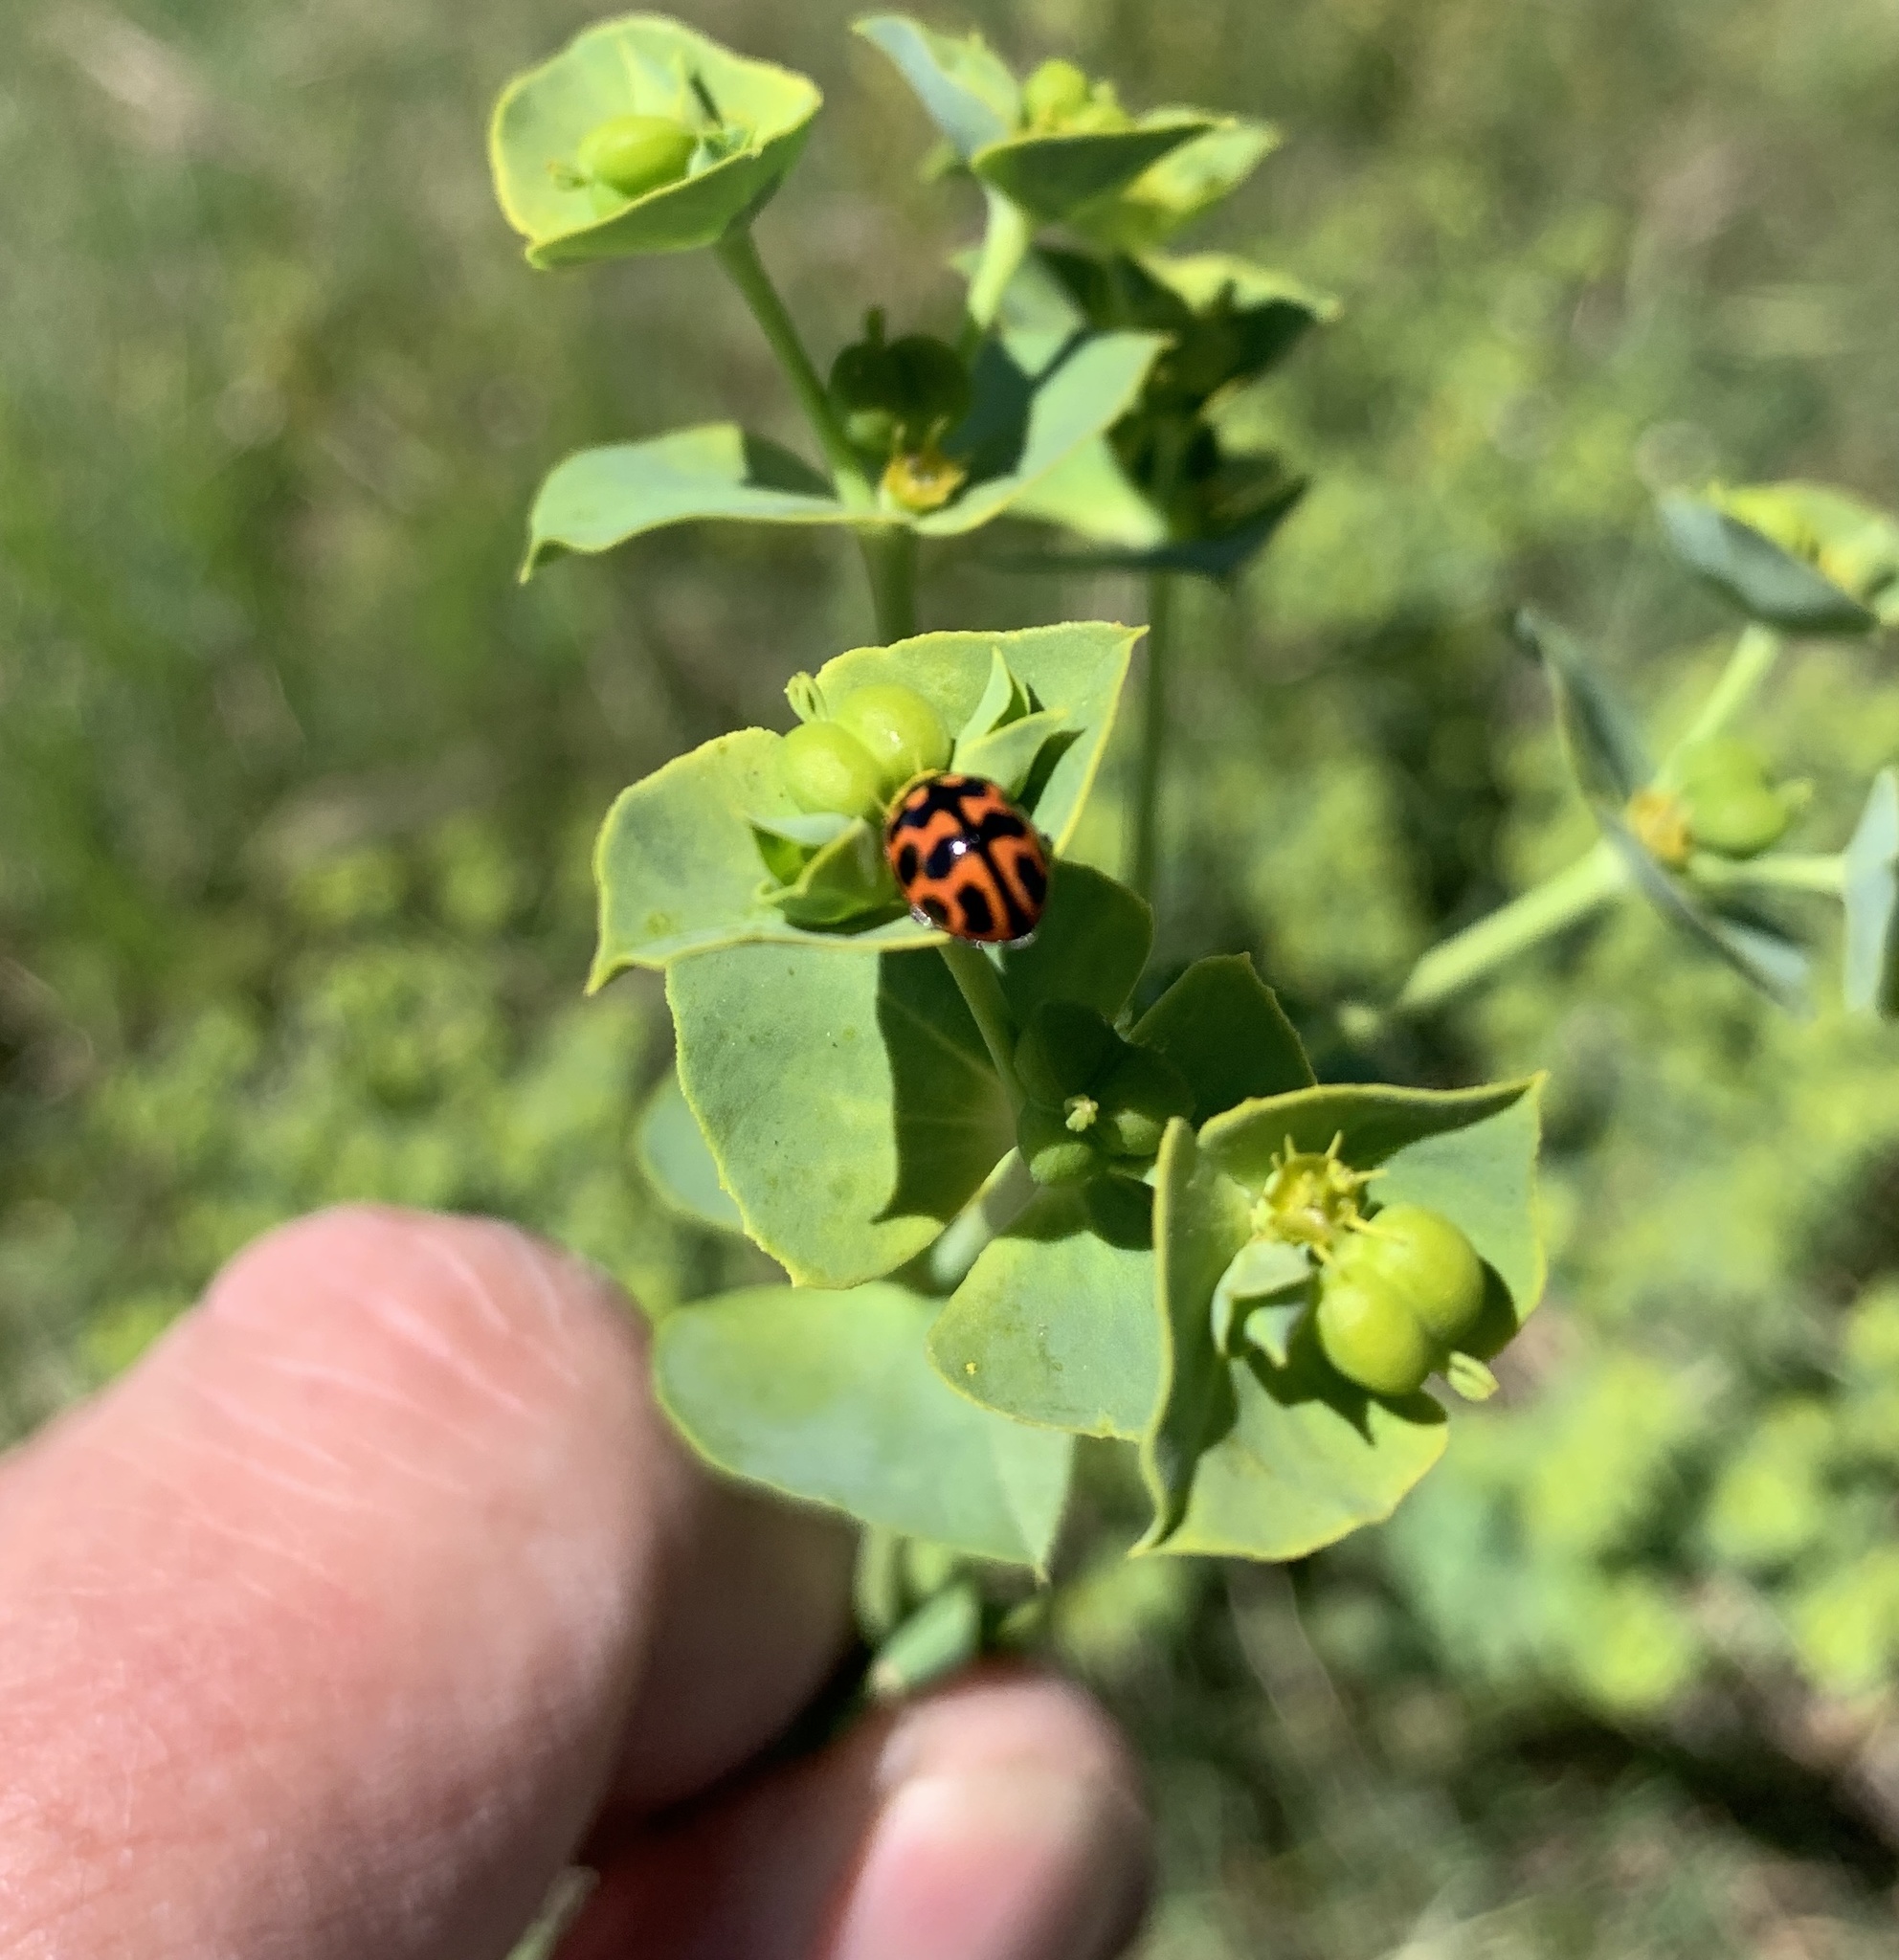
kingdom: Animalia
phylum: Arthropoda
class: Insecta
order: Coleoptera
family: Coccinellidae
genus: Lioadalia
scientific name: Lioadalia flavomaculata
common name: Ladybird beetle
